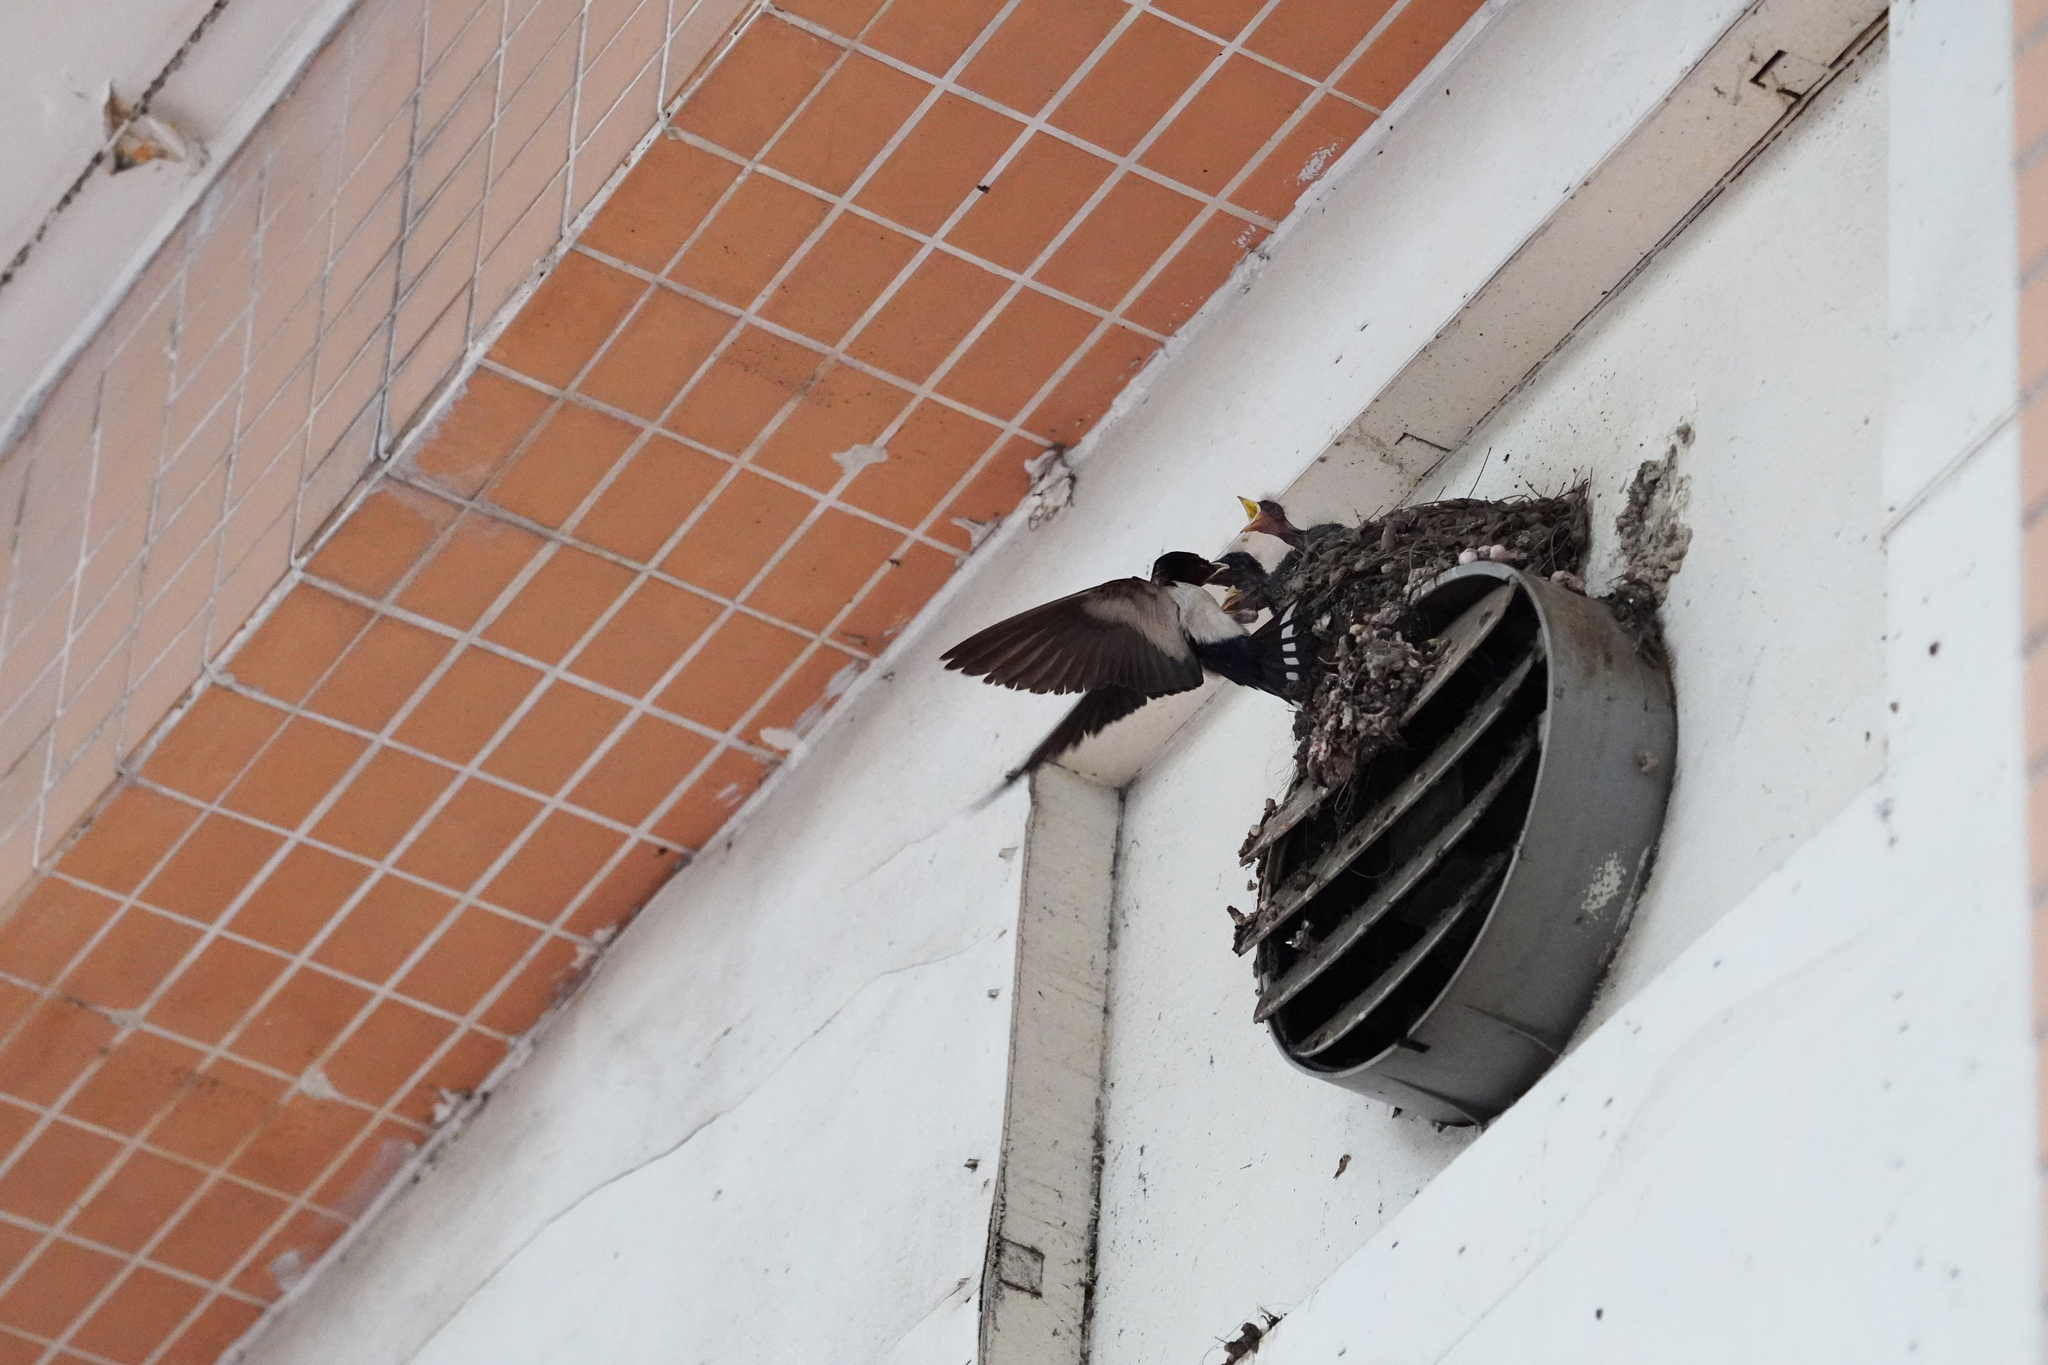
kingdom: Animalia
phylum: Chordata
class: Aves
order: Passeriformes
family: Hirundinidae
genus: Hirundo
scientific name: Hirundo rustica
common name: Barn swallow
